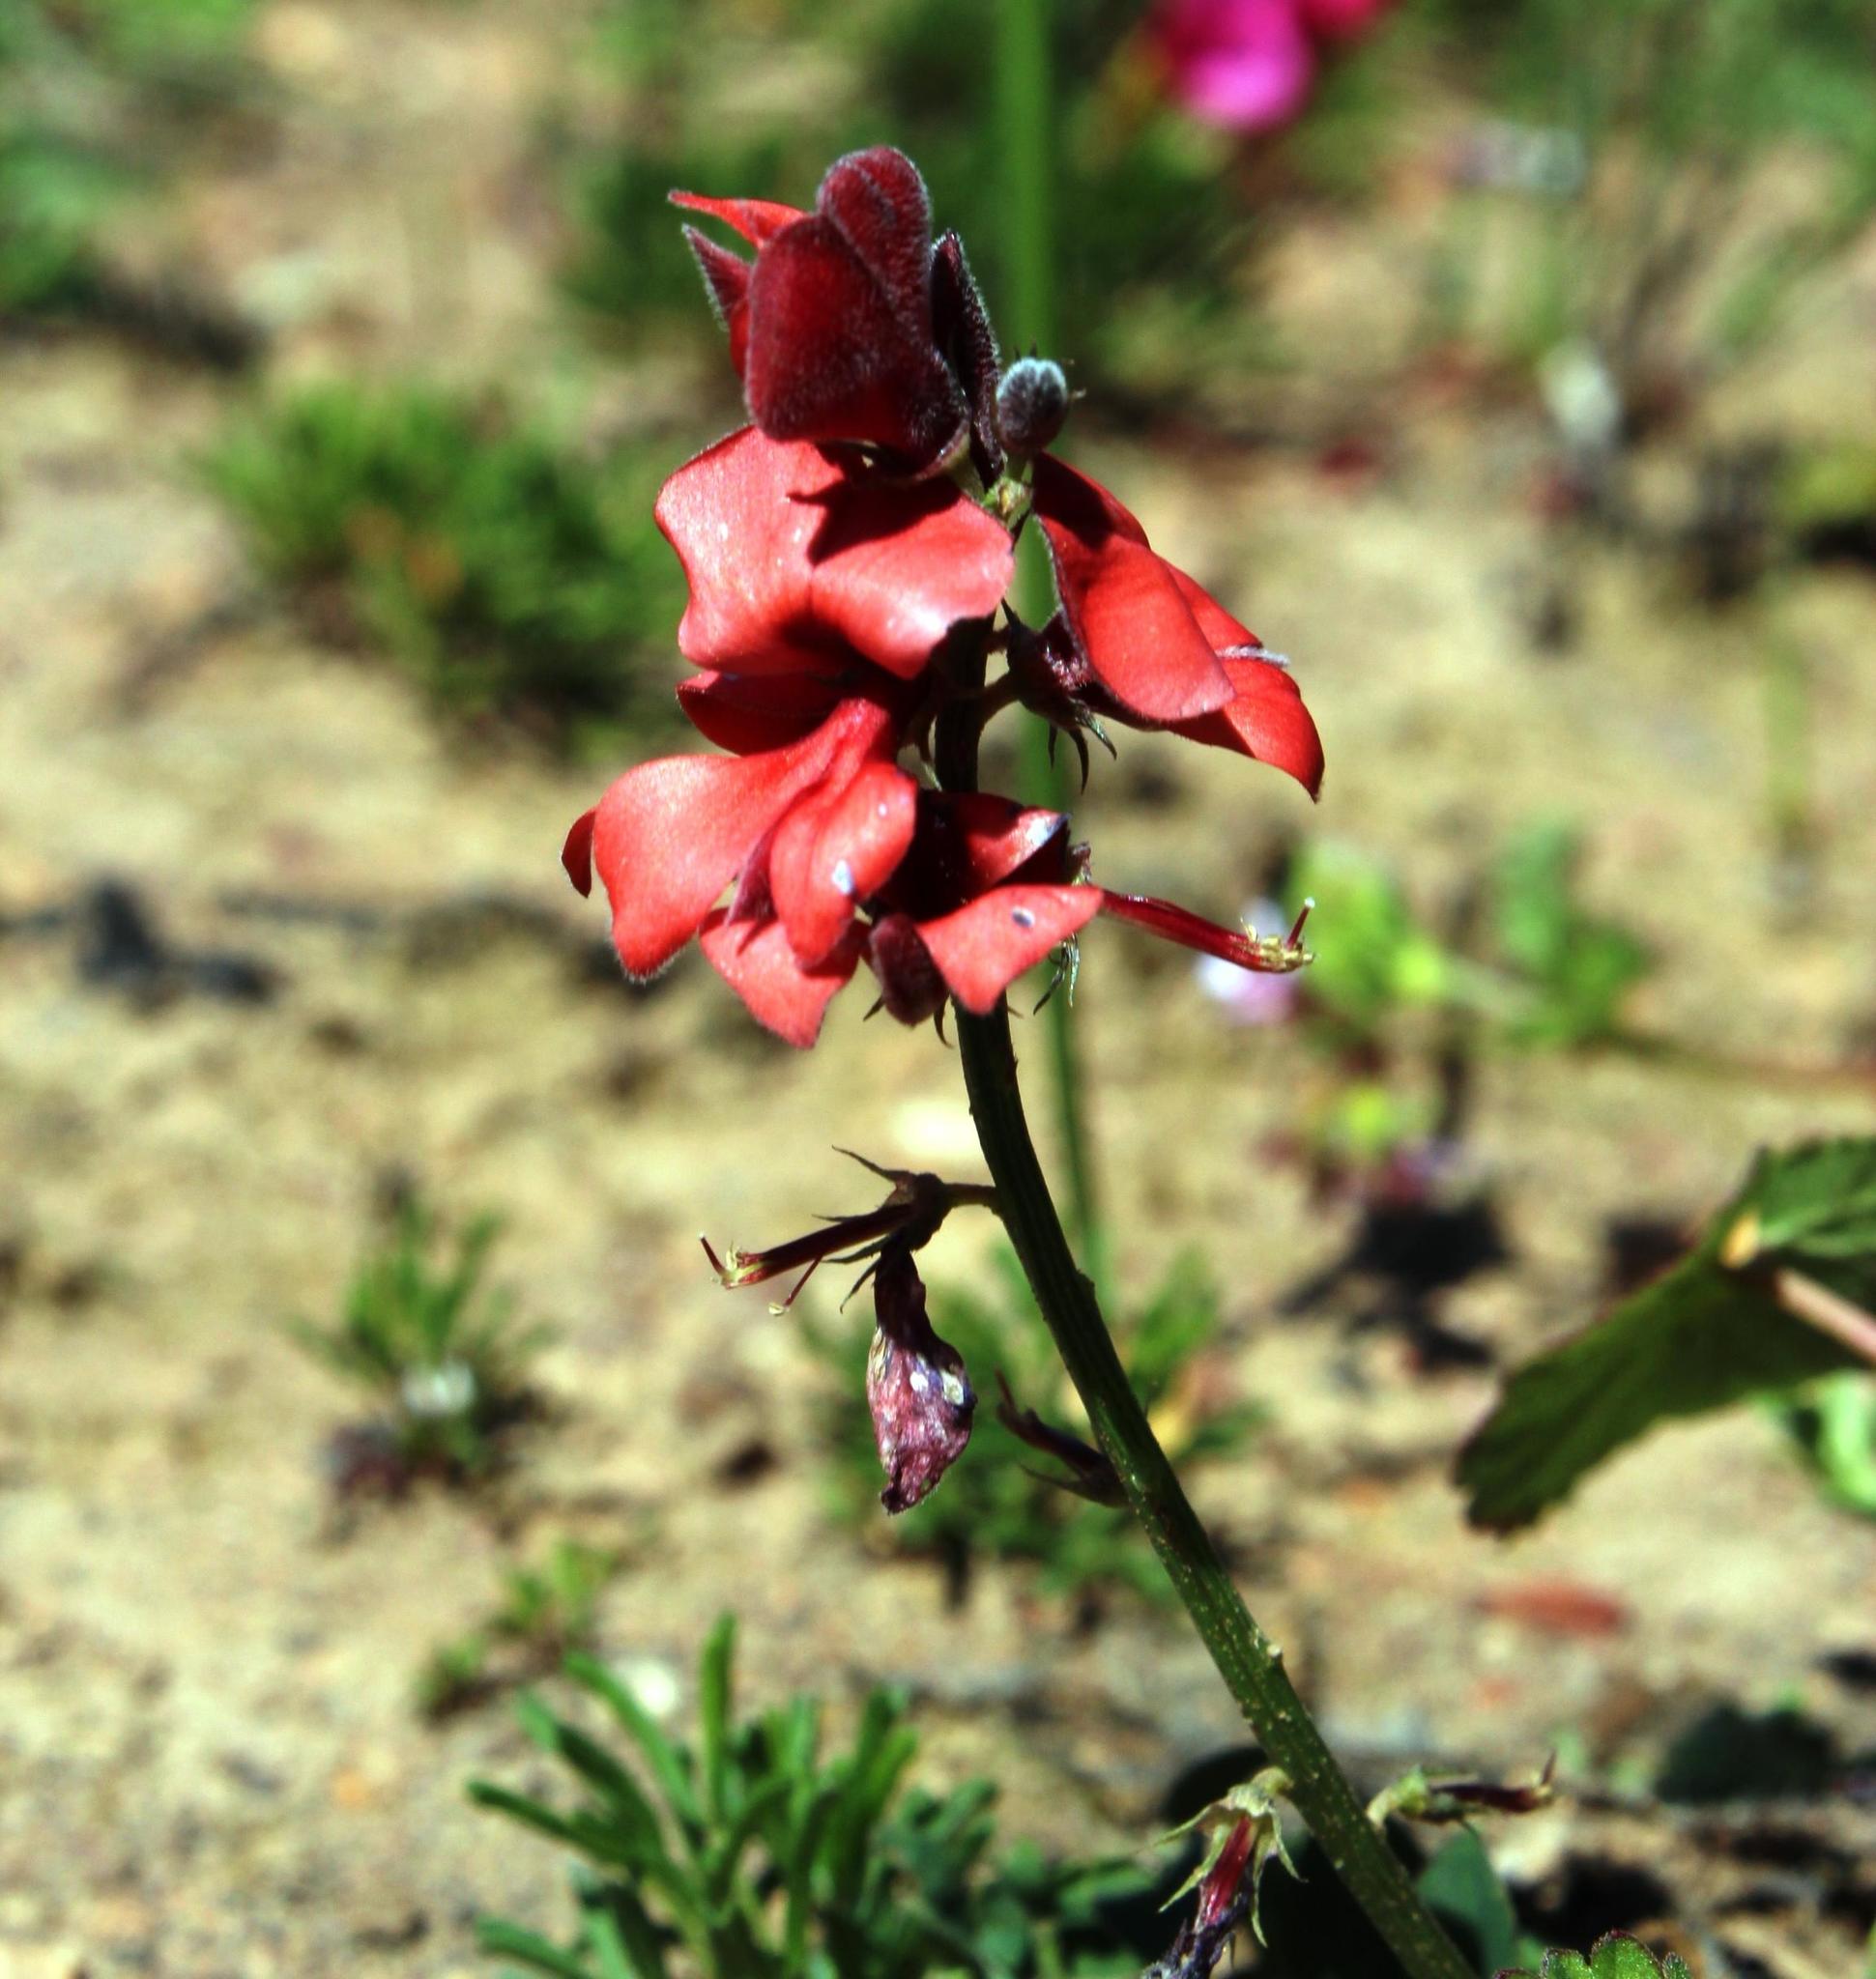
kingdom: Plantae
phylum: Tracheophyta
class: Magnoliopsida
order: Fabales
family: Fabaceae
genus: Indigofera
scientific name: Indigofera heterophylla
